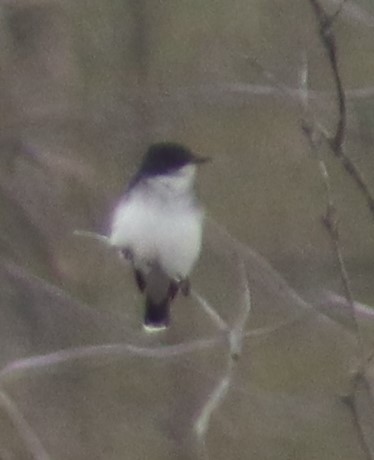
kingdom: Animalia
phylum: Chordata
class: Aves
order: Passeriformes
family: Tyrannidae
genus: Tyrannus
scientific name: Tyrannus tyrannus
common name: Eastern kingbird
